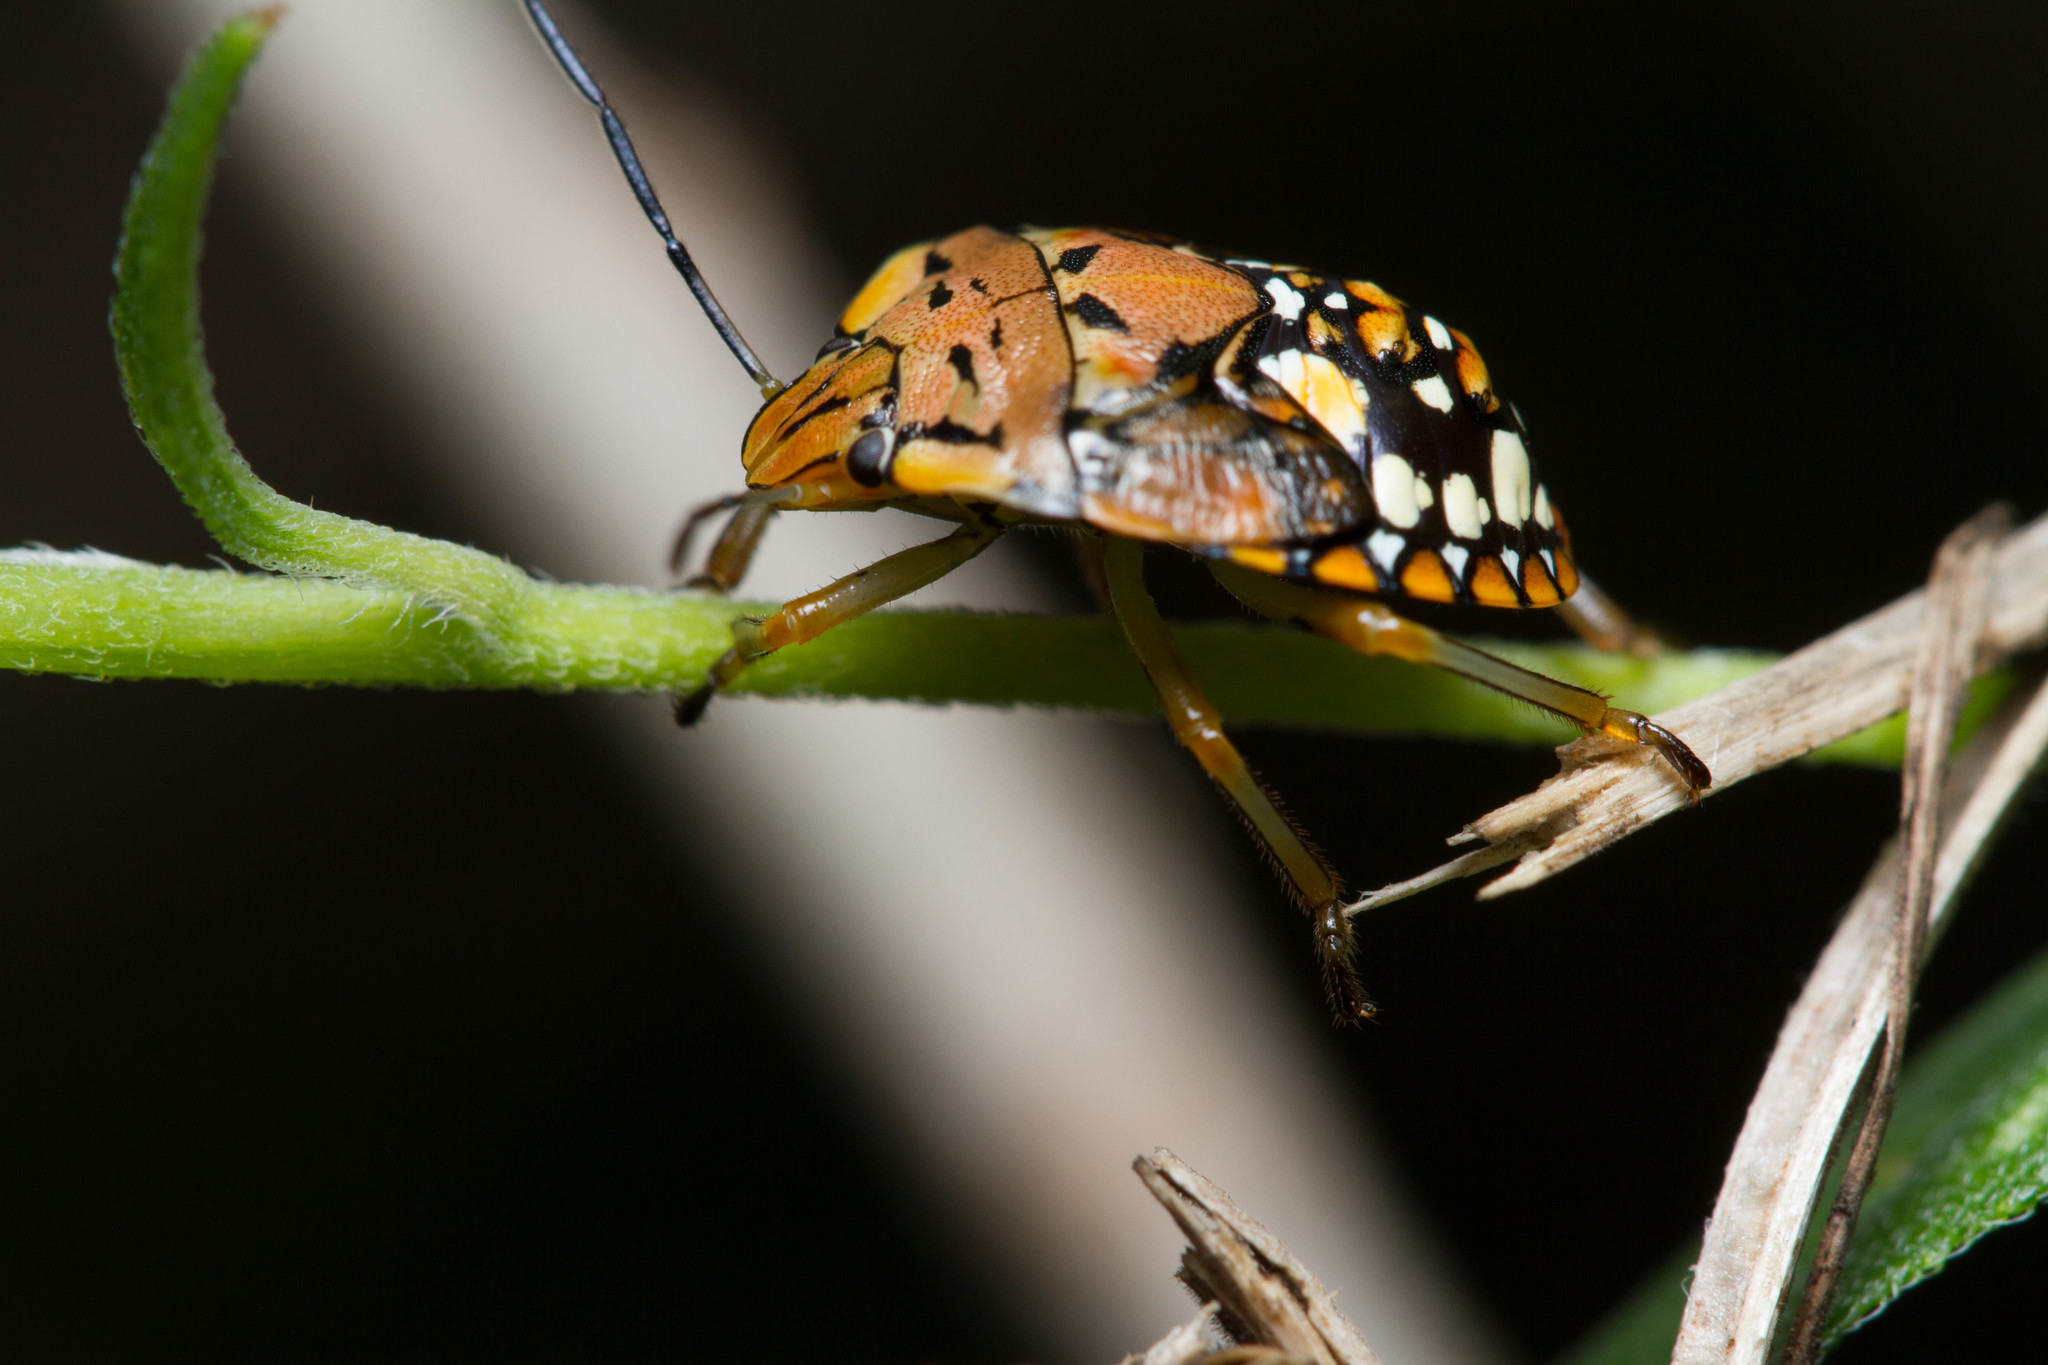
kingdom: Animalia
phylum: Arthropoda
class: Insecta
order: Hemiptera
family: Pentatomidae
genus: Acrosternum
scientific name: Acrosternum marginatum
